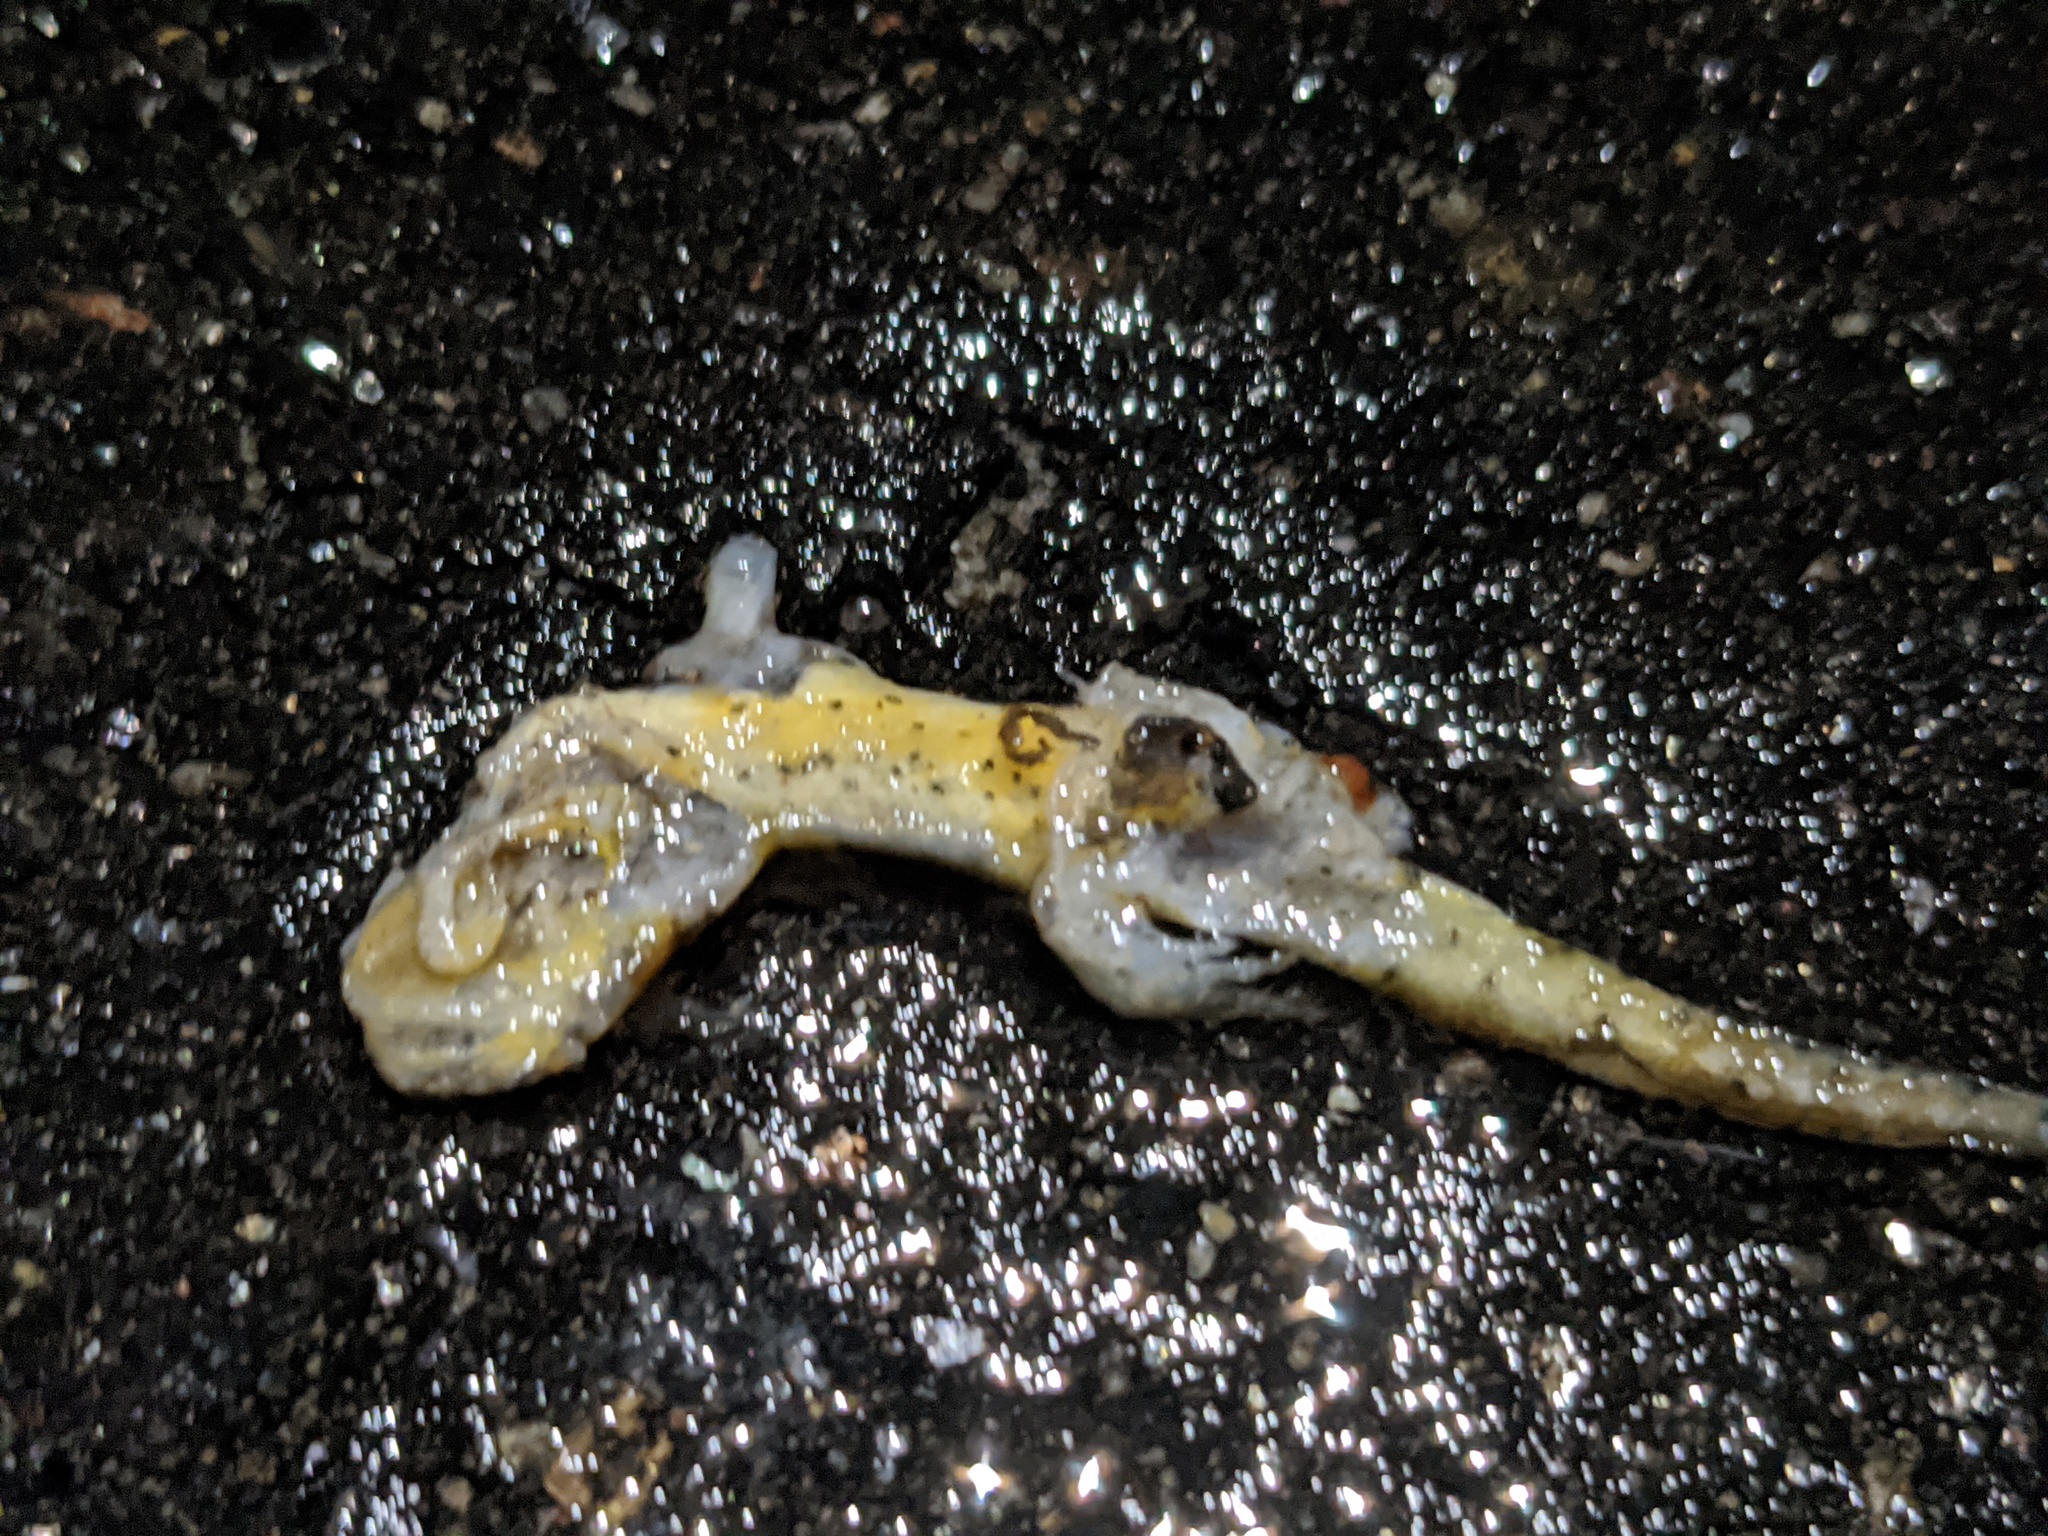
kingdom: Animalia
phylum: Chordata
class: Amphibia
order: Caudata
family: Salamandridae
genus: Notophthalmus
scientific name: Notophthalmus viridescens
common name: Eastern newt
